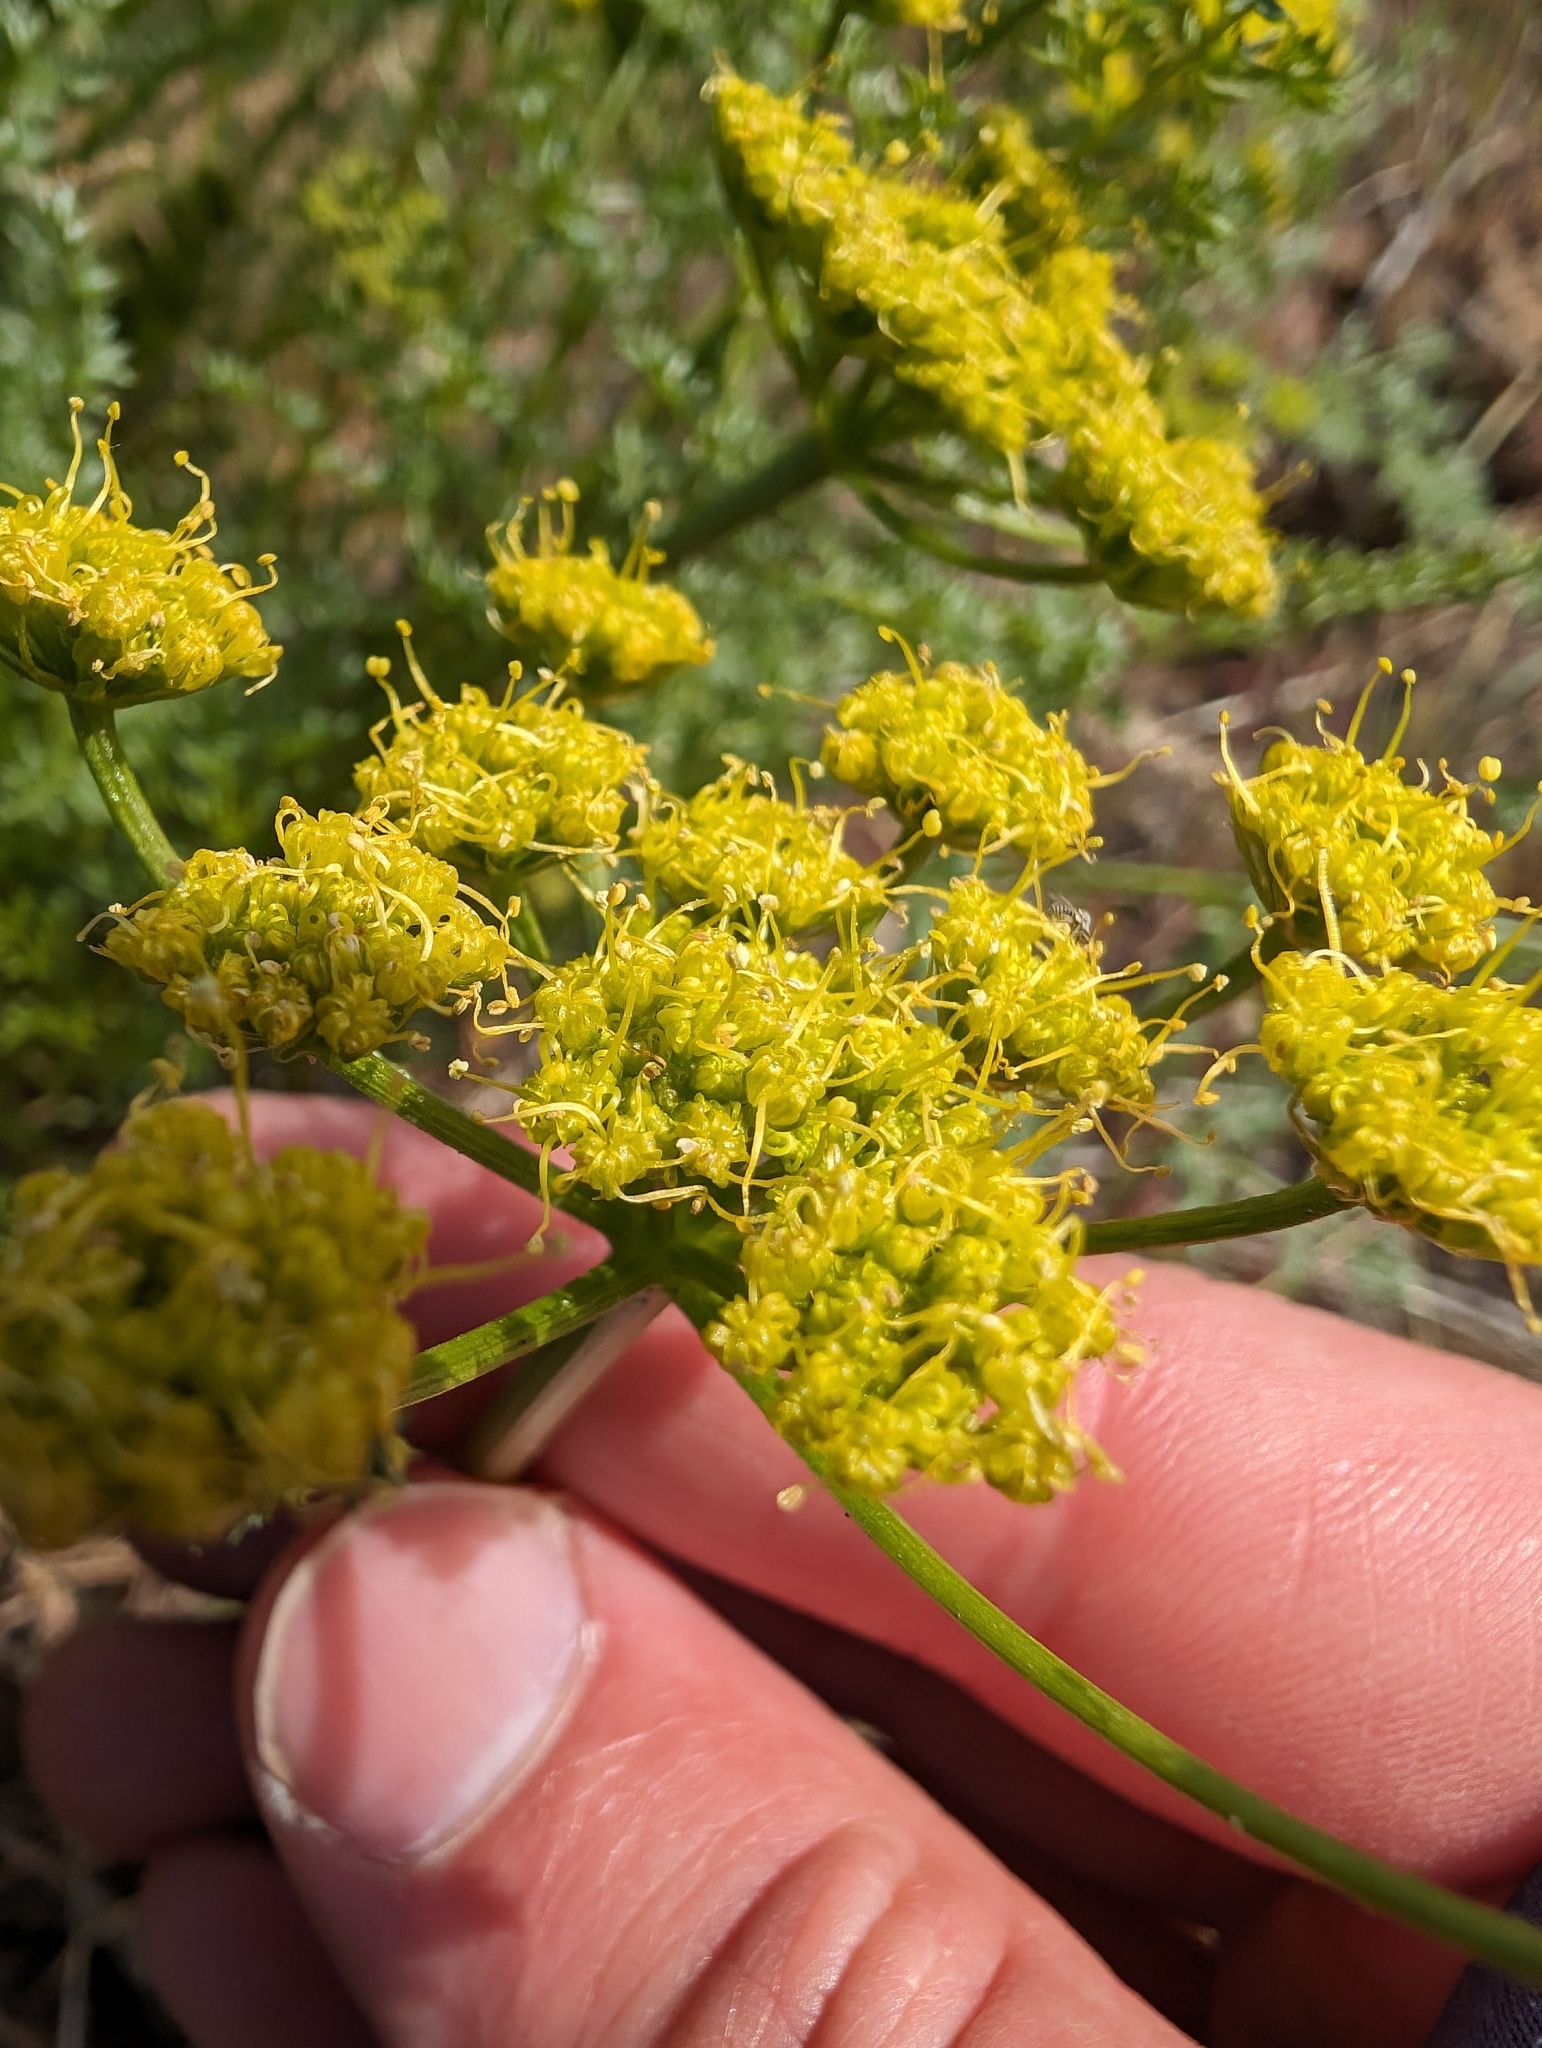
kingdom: Plantae
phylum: Tracheophyta
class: Magnoliopsida
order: Apiales
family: Apiaceae
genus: Pteryxia
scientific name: Pteryxia terebinthina
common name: Turpentine wavewing
